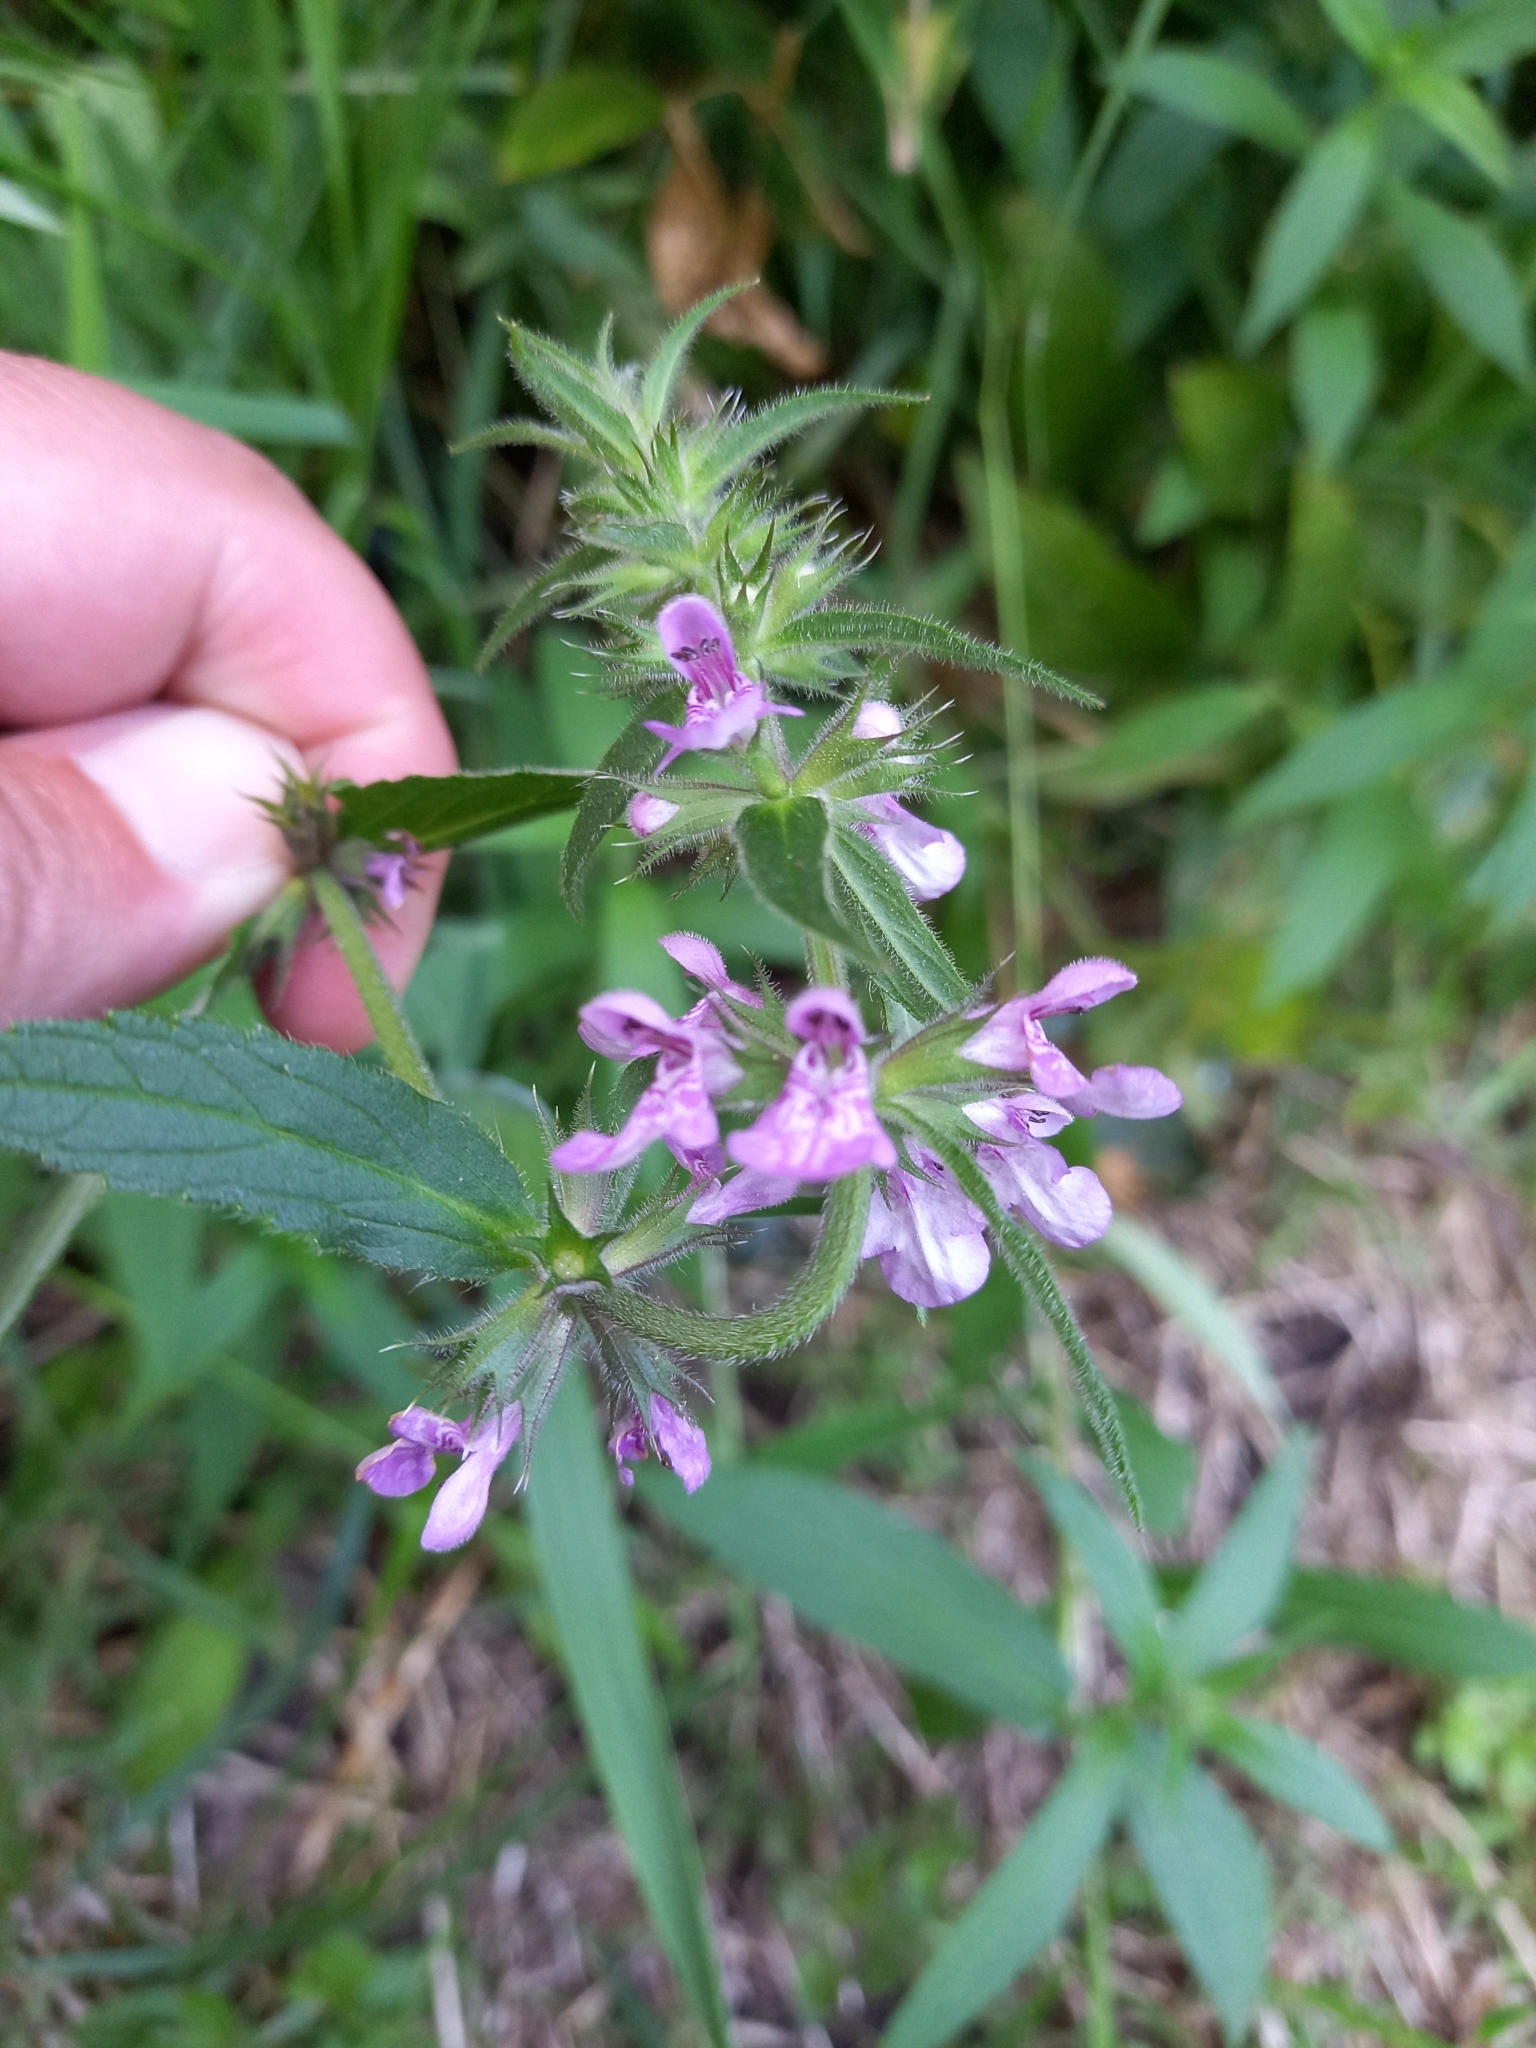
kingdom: Plantae
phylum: Tracheophyta
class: Magnoliopsida
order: Lamiales
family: Lamiaceae
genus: Stachys
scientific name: Stachys palustris
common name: Marsh woundwort
